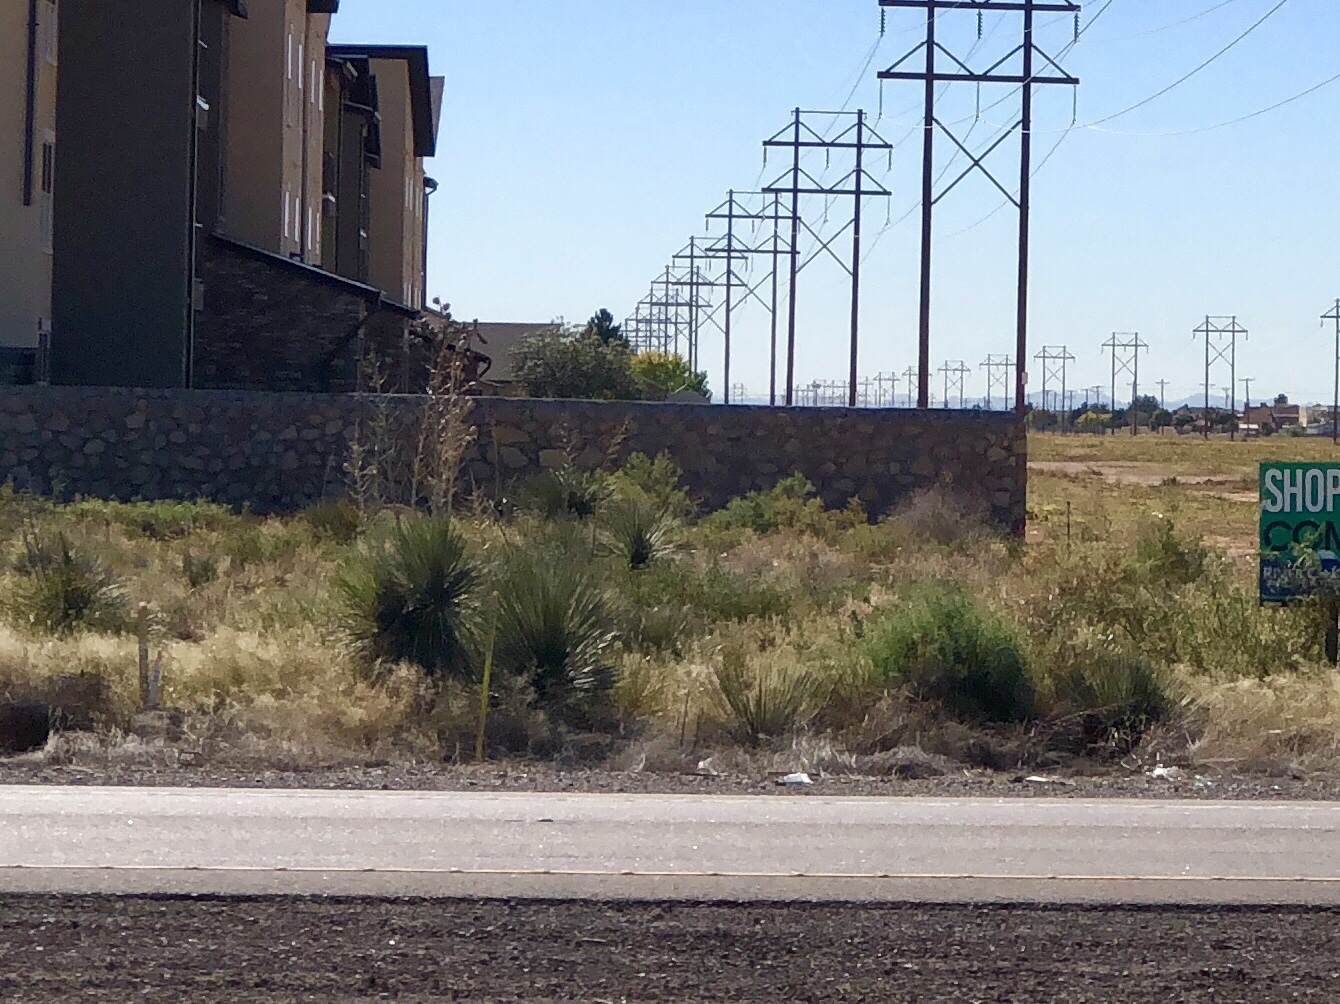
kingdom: Plantae
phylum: Tracheophyta
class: Liliopsida
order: Asparagales
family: Asparagaceae
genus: Yucca
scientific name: Yucca elata
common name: Palmella
